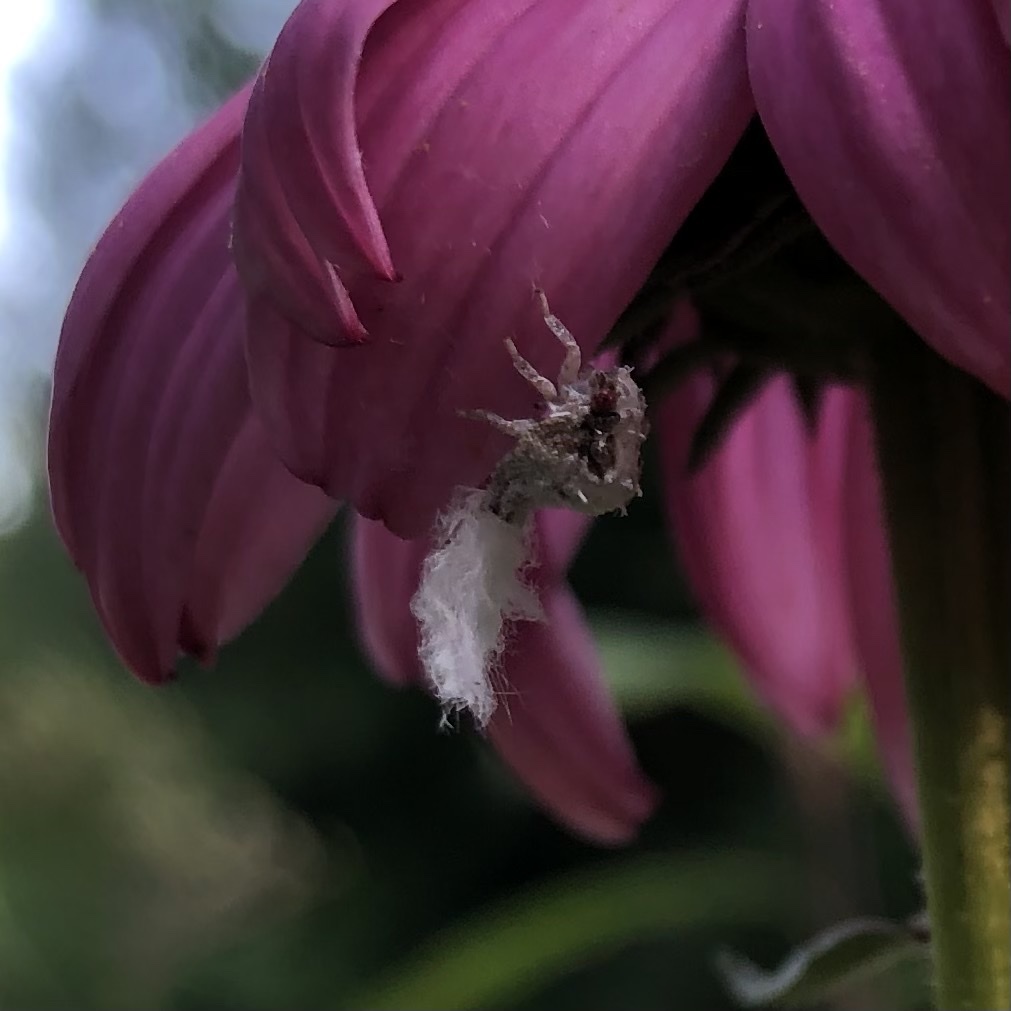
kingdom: Animalia
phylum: Arthropoda
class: Insecta
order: Hemiptera
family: Acanaloniidae
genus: Acanalonia
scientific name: Acanalonia servillei
